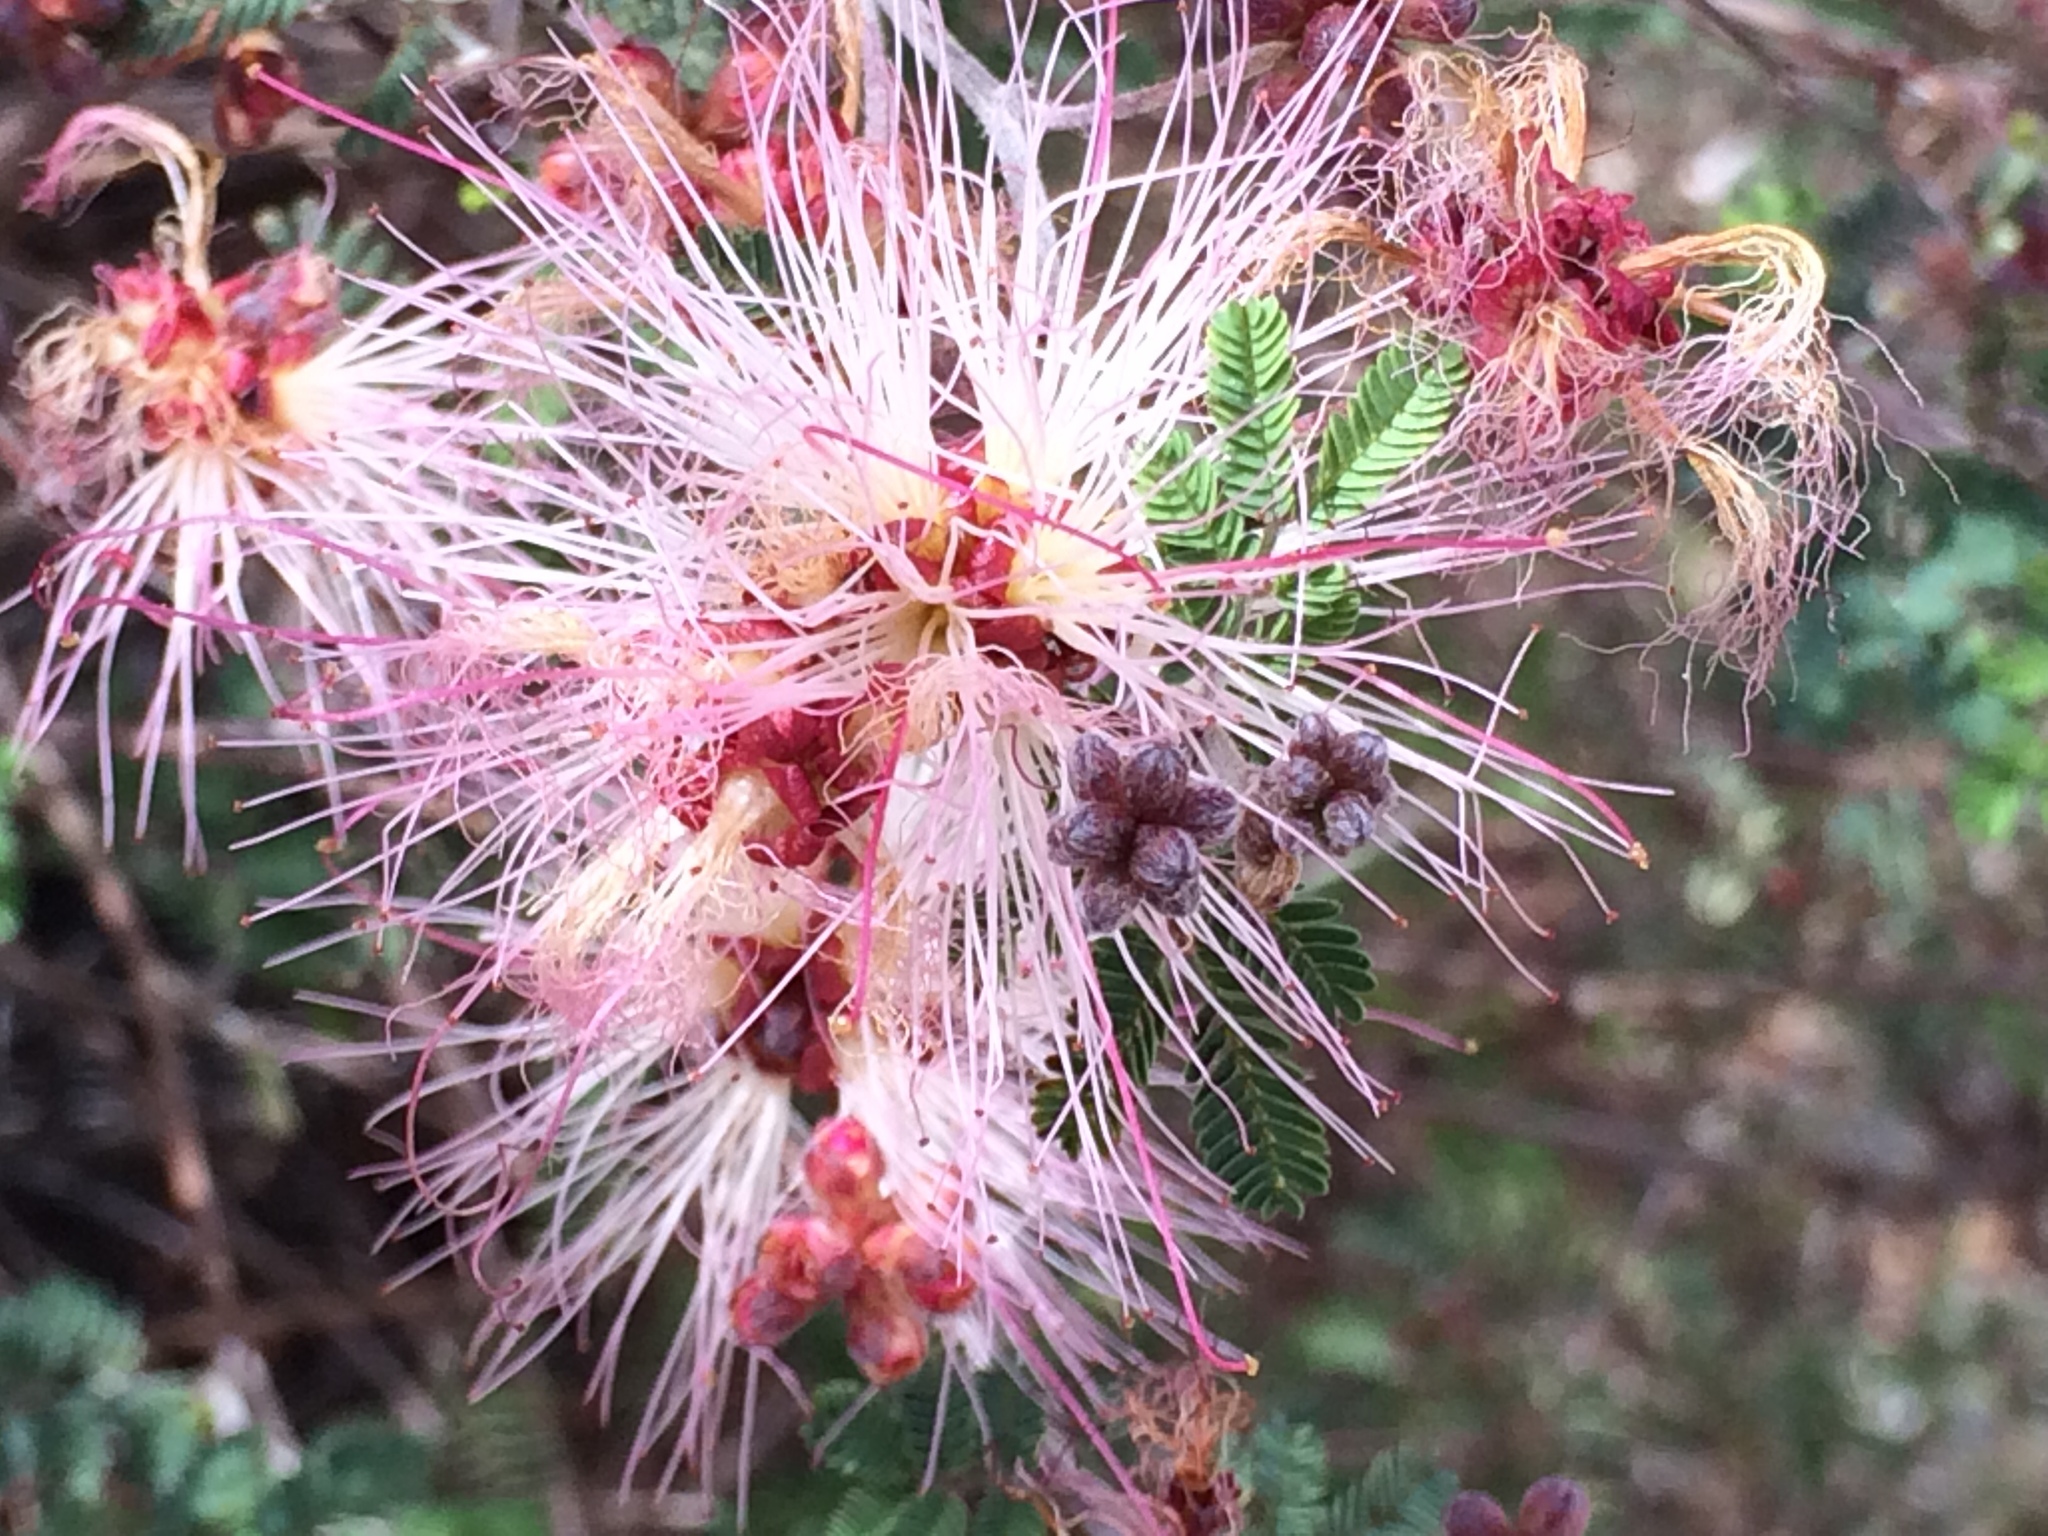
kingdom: Plantae
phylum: Tracheophyta
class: Magnoliopsida
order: Fabales
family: Fabaceae
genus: Calliandra
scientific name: Calliandra eriophylla
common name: Fairy-duster
